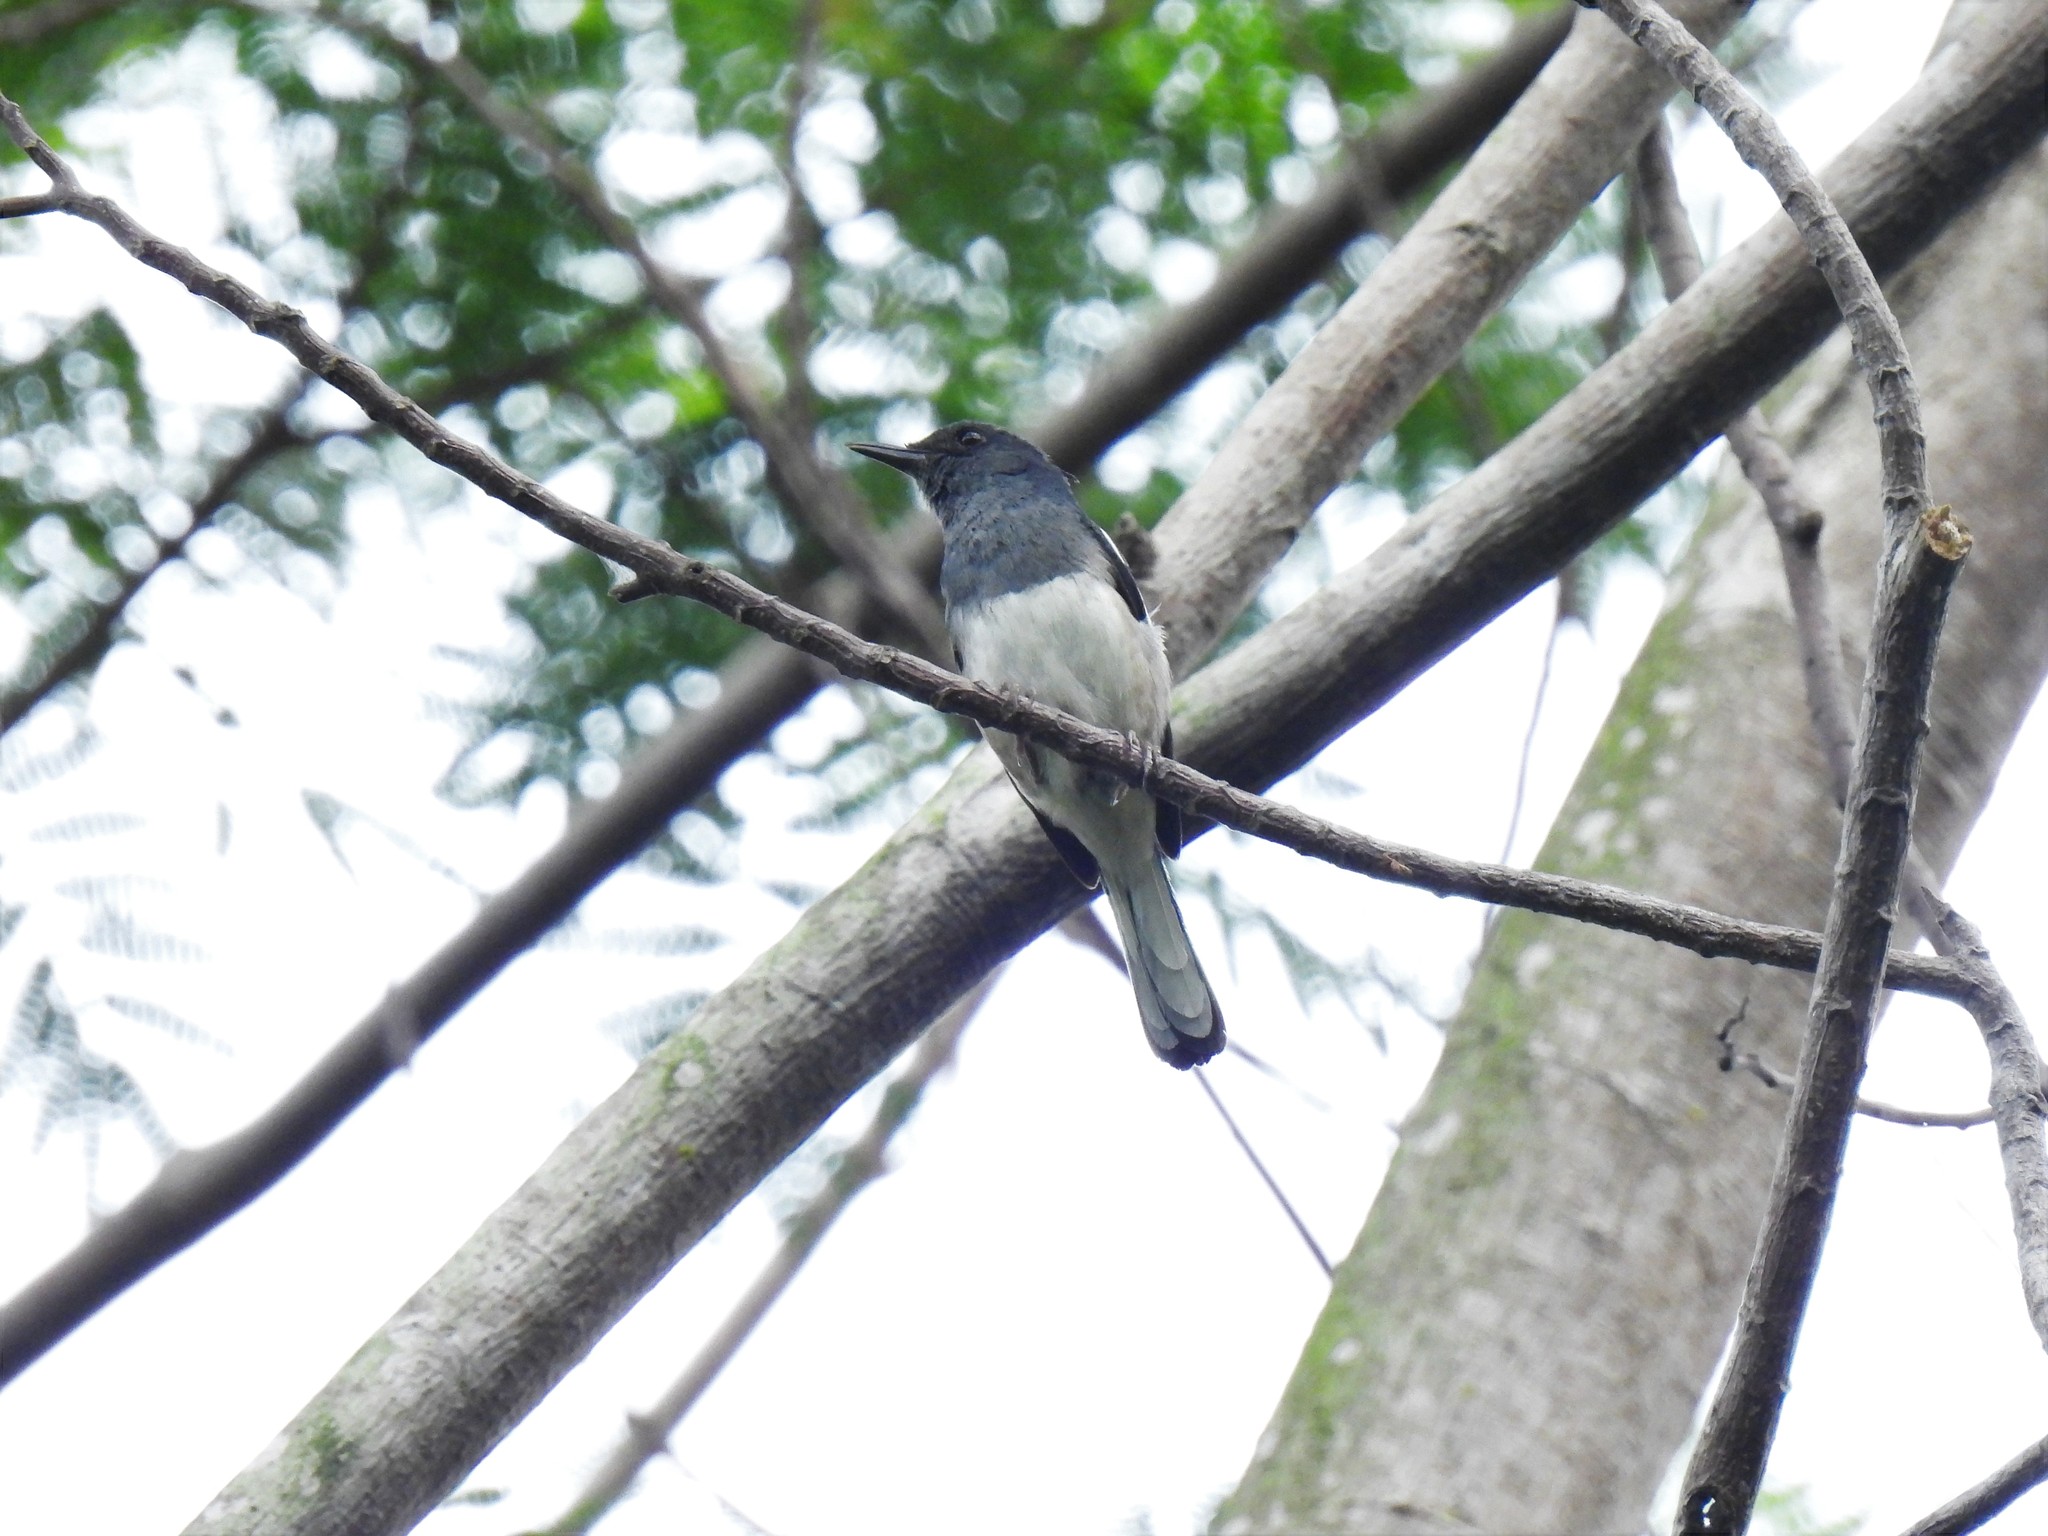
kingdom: Animalia
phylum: Chordata
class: Aves
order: Passeriformes
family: Muscicapidae
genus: Copsychus
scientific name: Copsychus saularis
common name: Oriental magpie-robin
